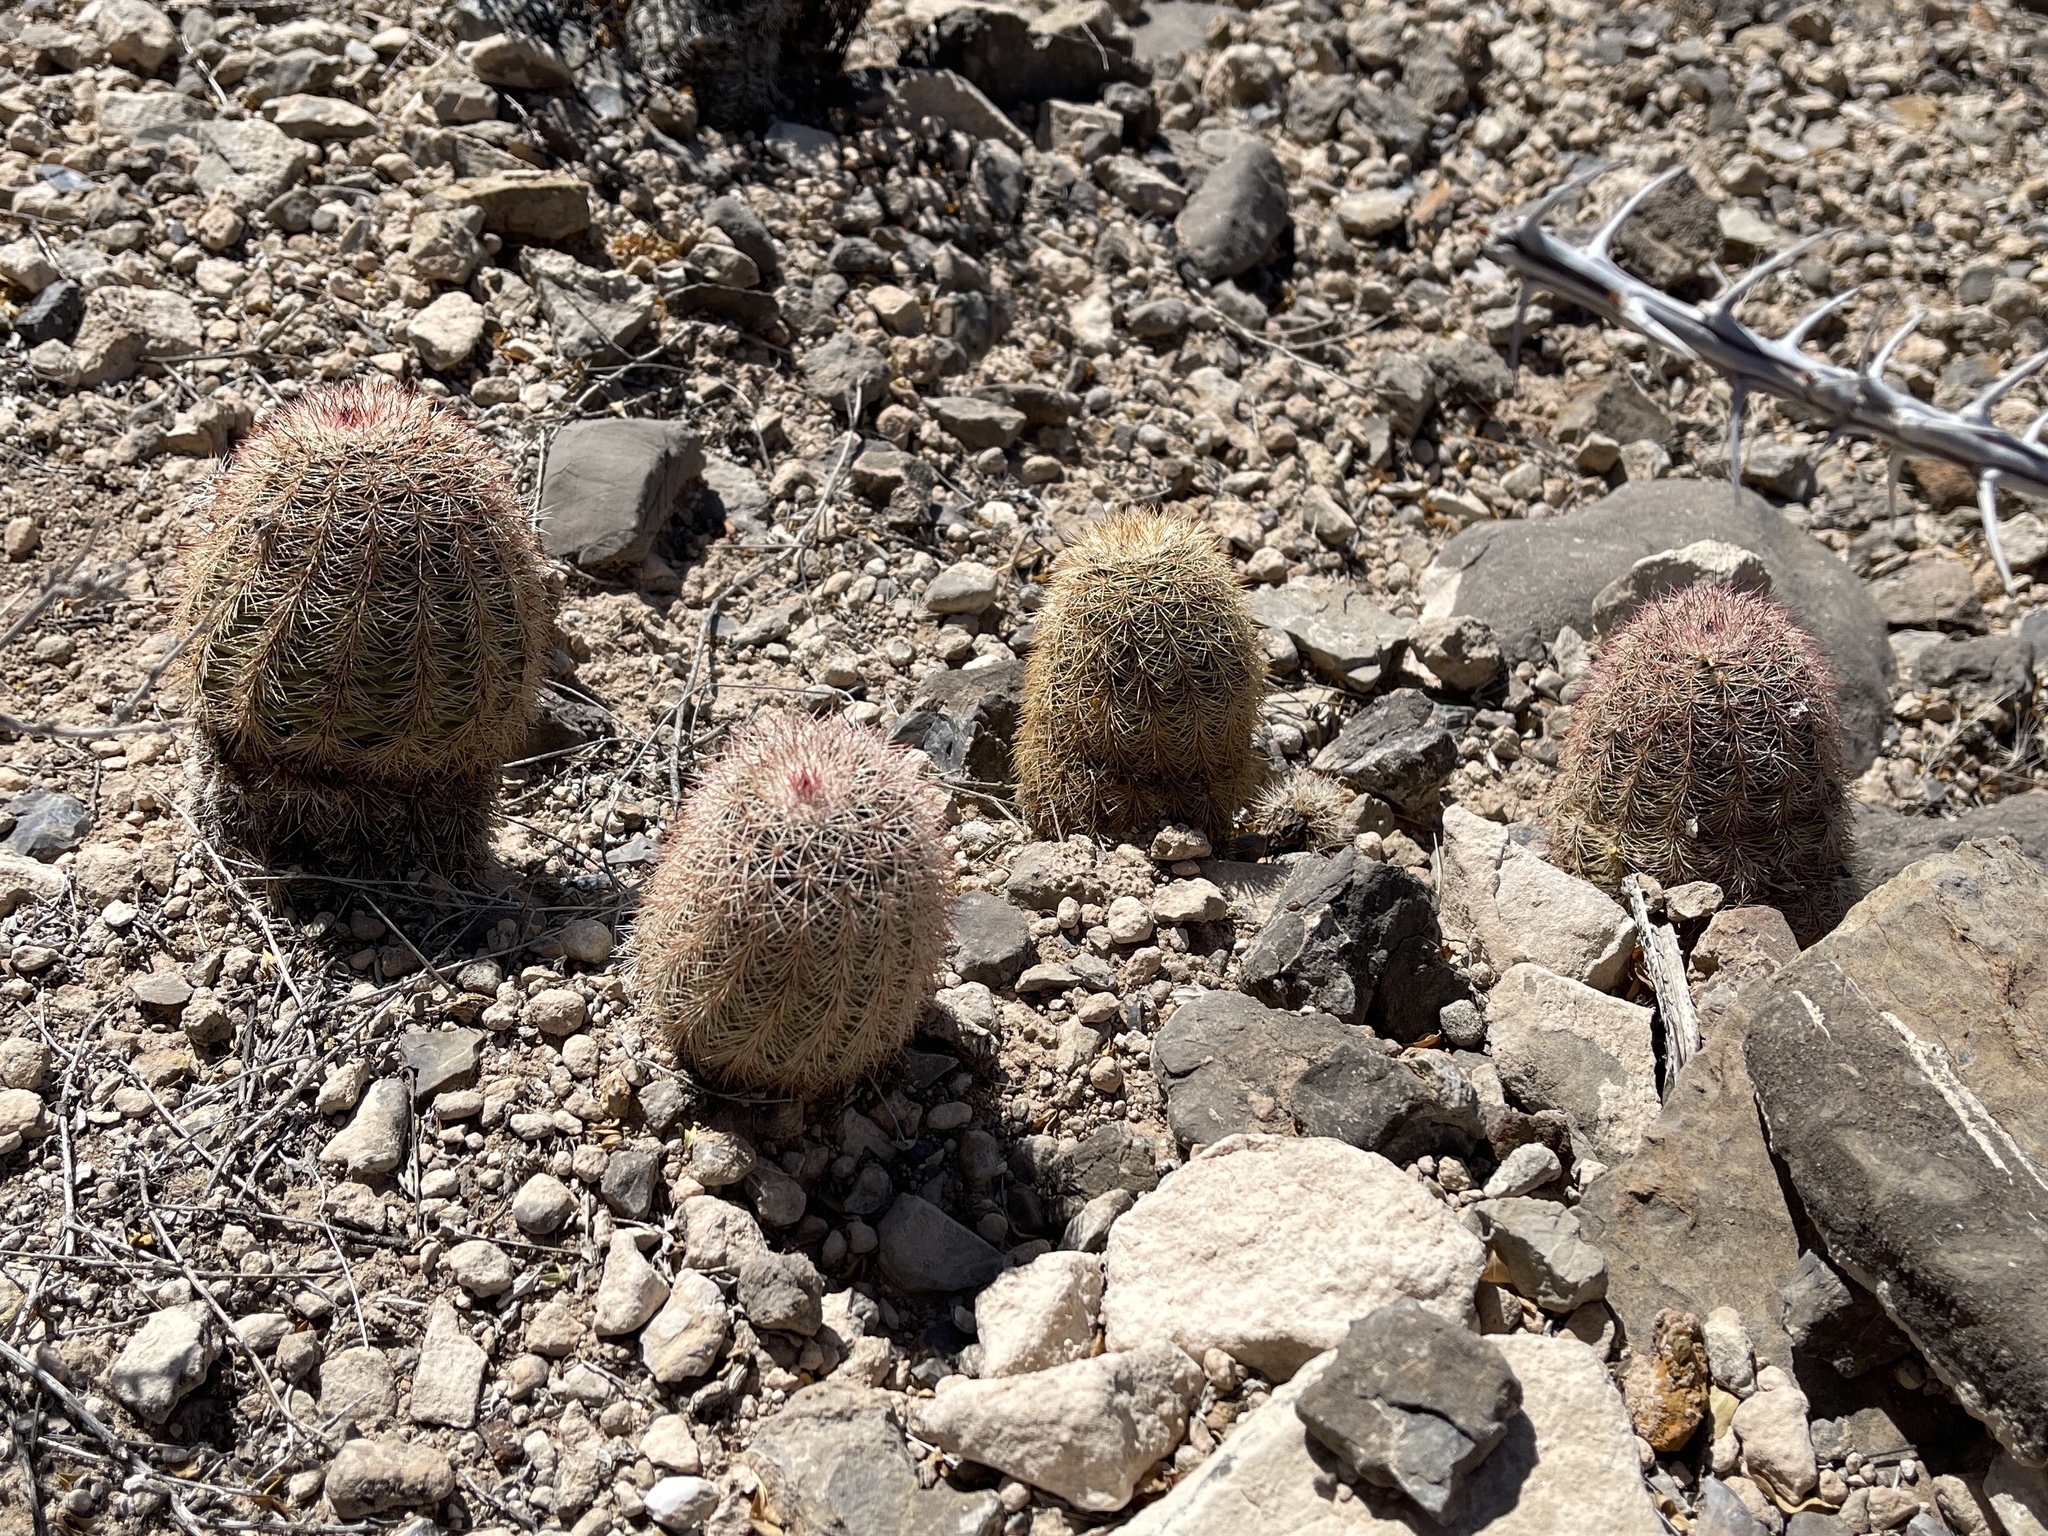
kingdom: Plantae
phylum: Tracheophyta
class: Magnoliopsida
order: Caryophyllales
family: Cactaceae
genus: Echinocereus
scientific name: Echinocereus dasyacanthus
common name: Spiny hedgehog cactus
